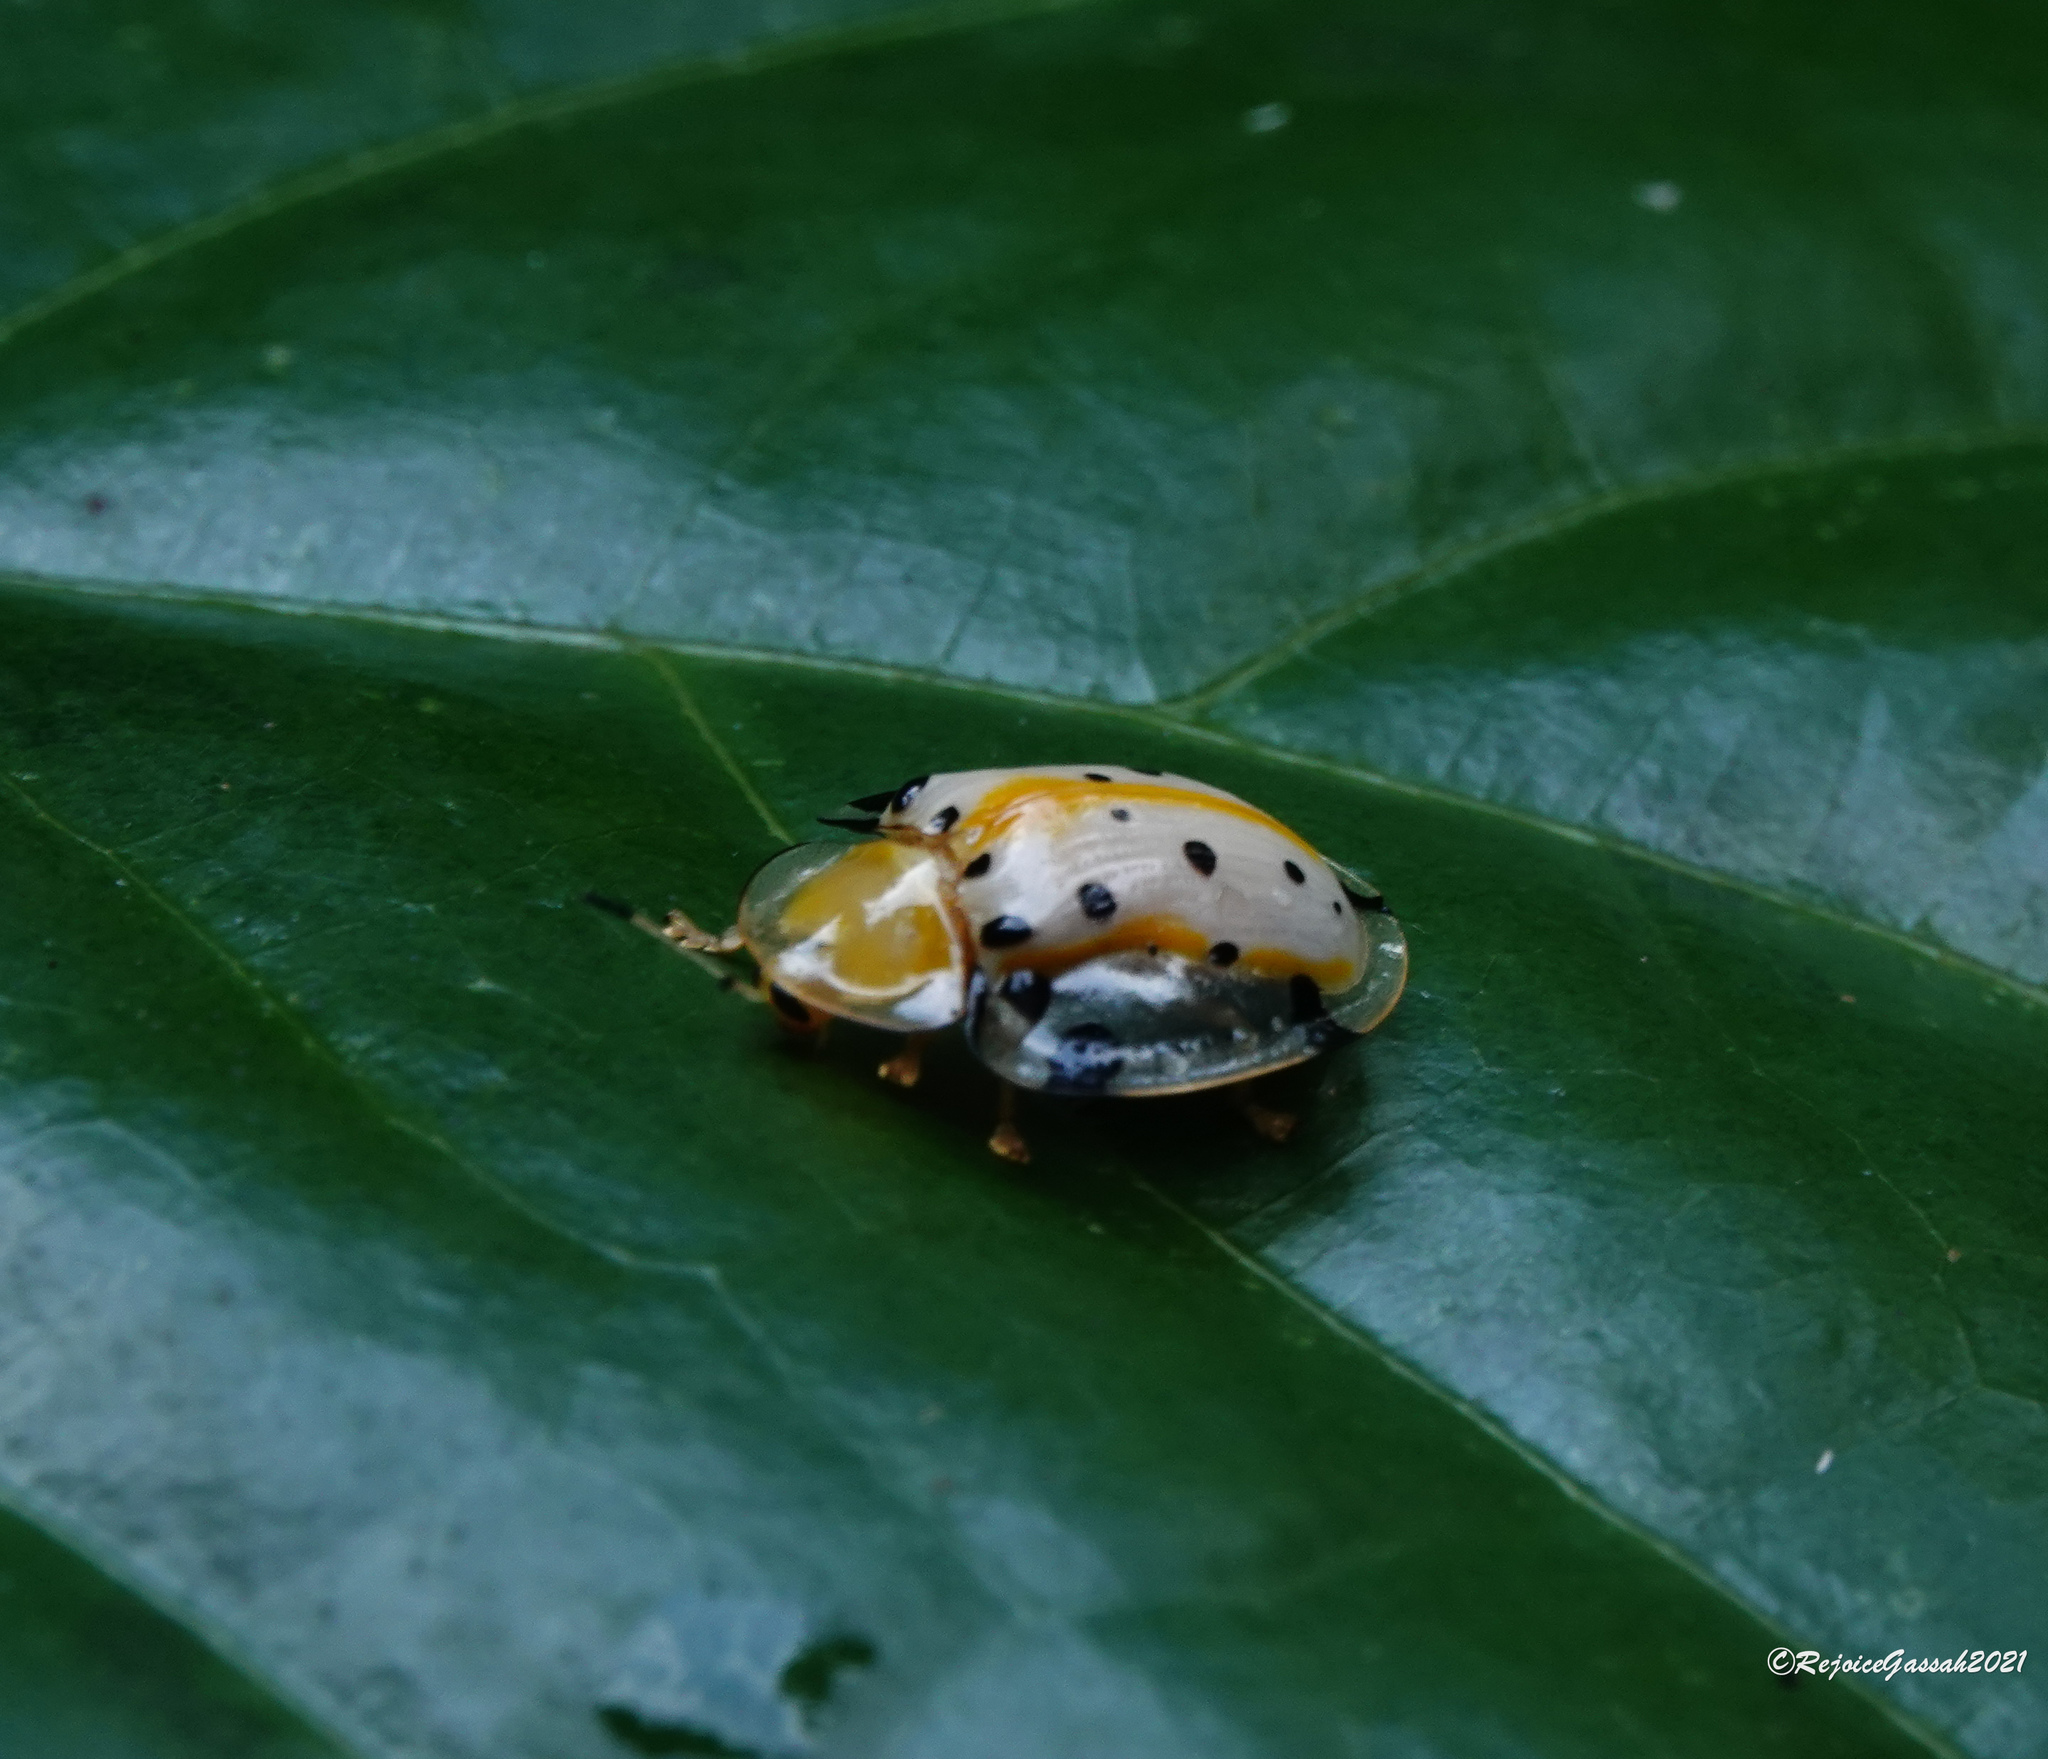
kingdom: Animalia
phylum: Arthropoda
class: Insecta
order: Coleoptera
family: Chrysomelidae
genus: Aspidimorpha
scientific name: Aspidimorpha miliaris
